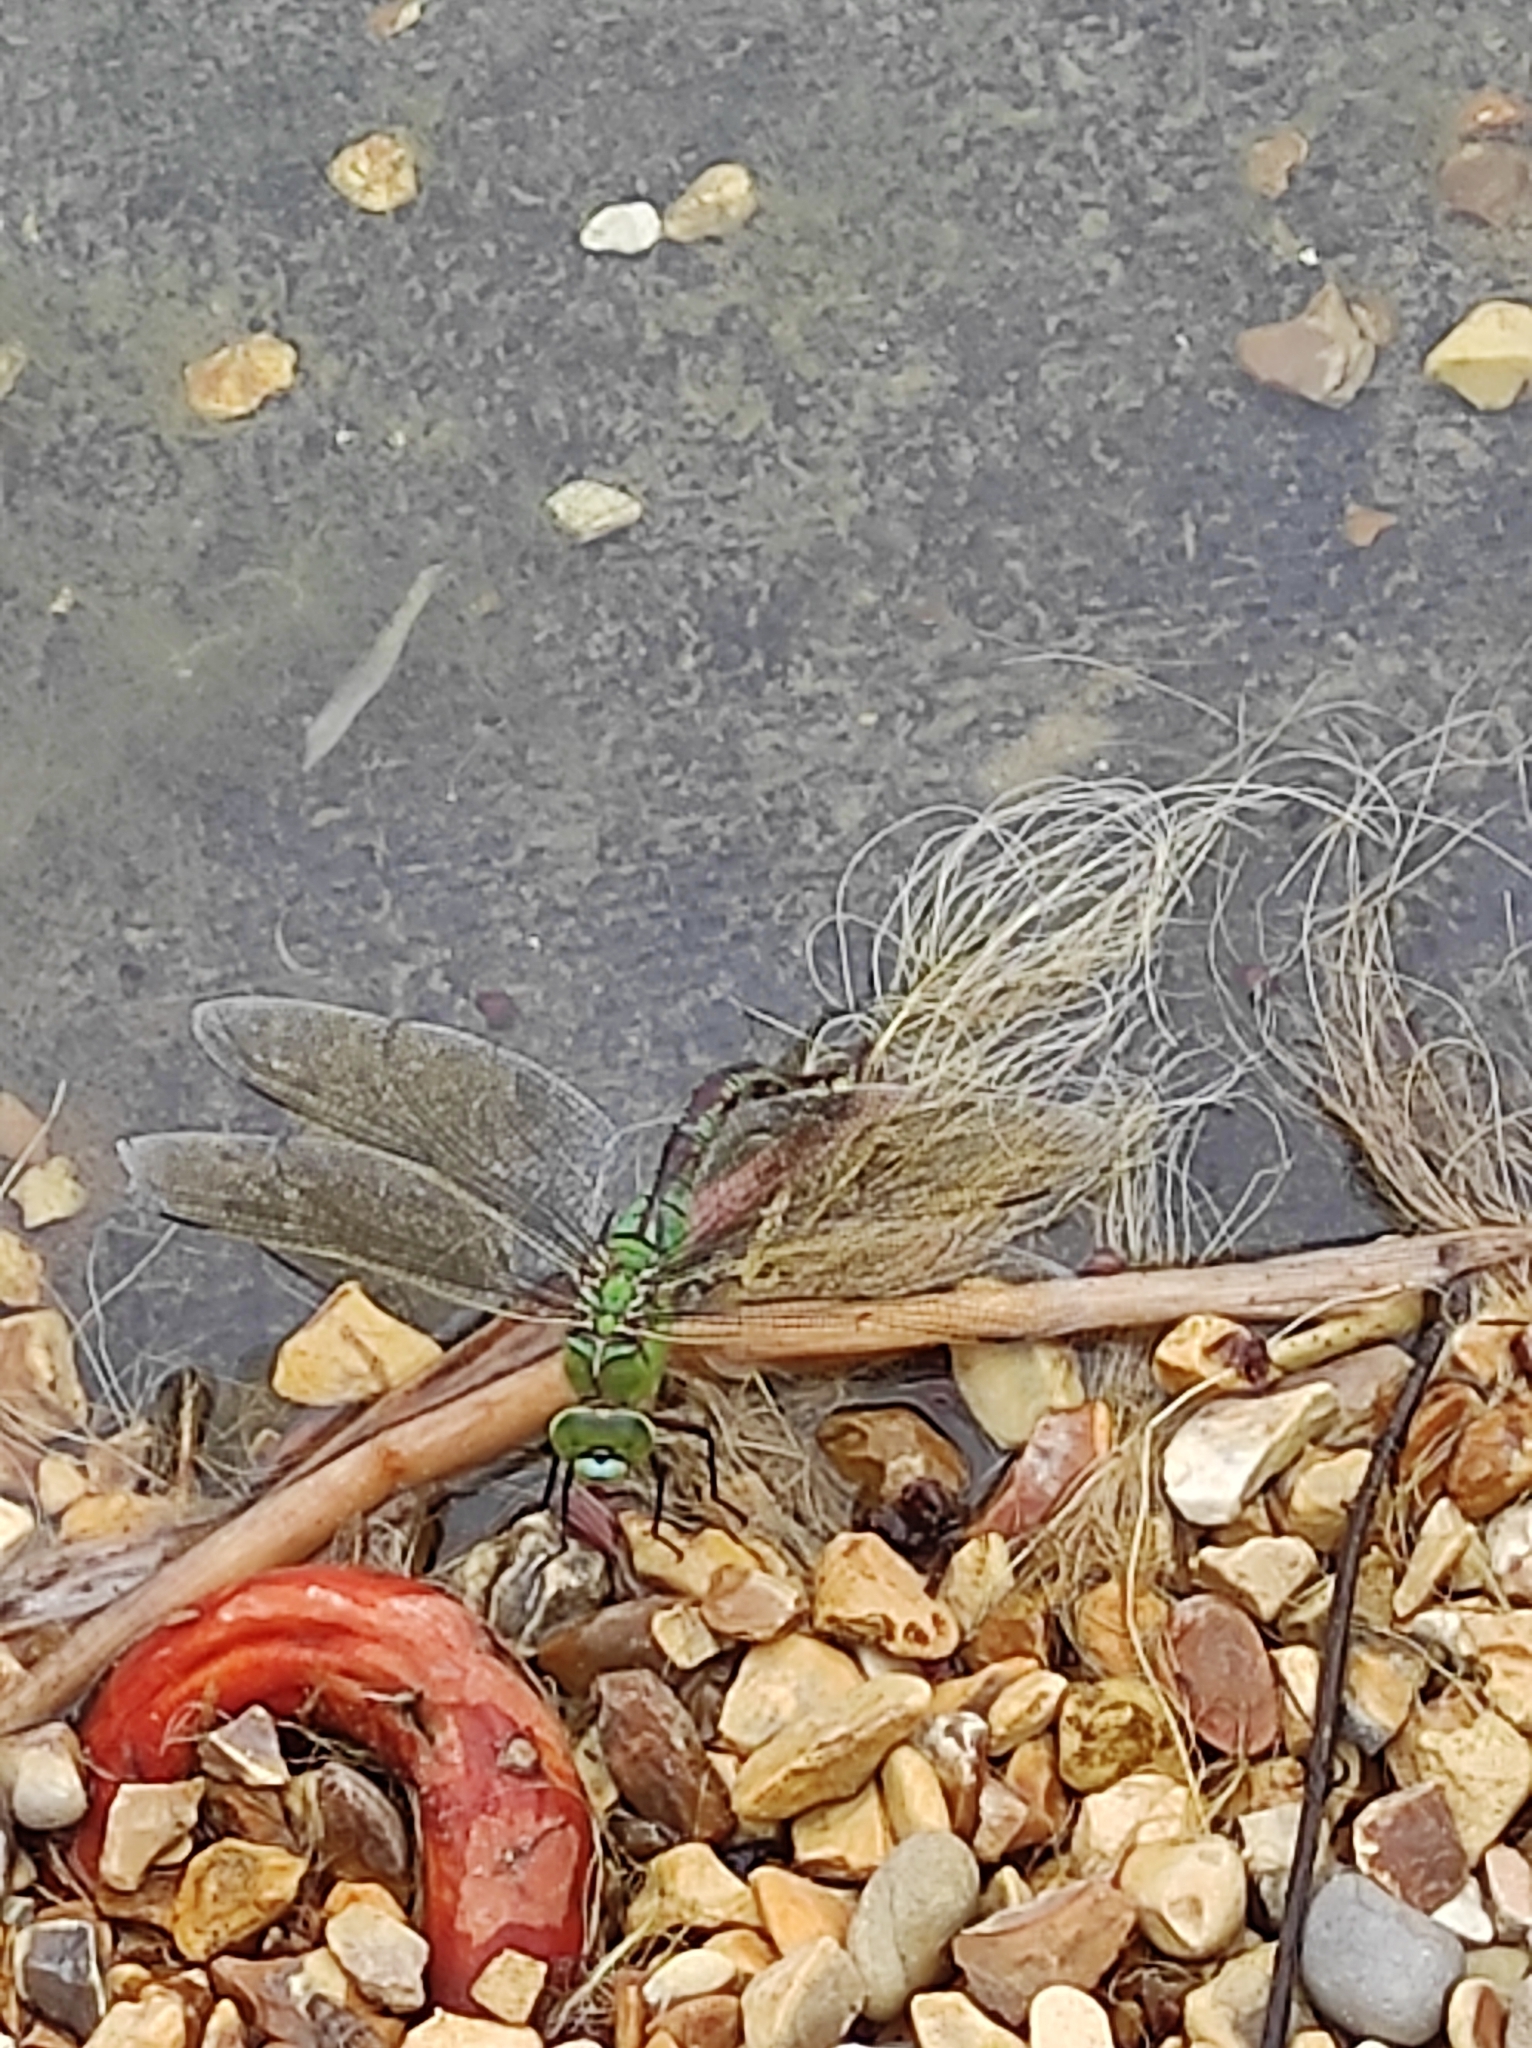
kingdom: Animalia
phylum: Arthropoda
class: Insecta
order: Odonata
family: Aeshnidae
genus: Anax
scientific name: Anax imperator
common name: Emperor dragonfly
